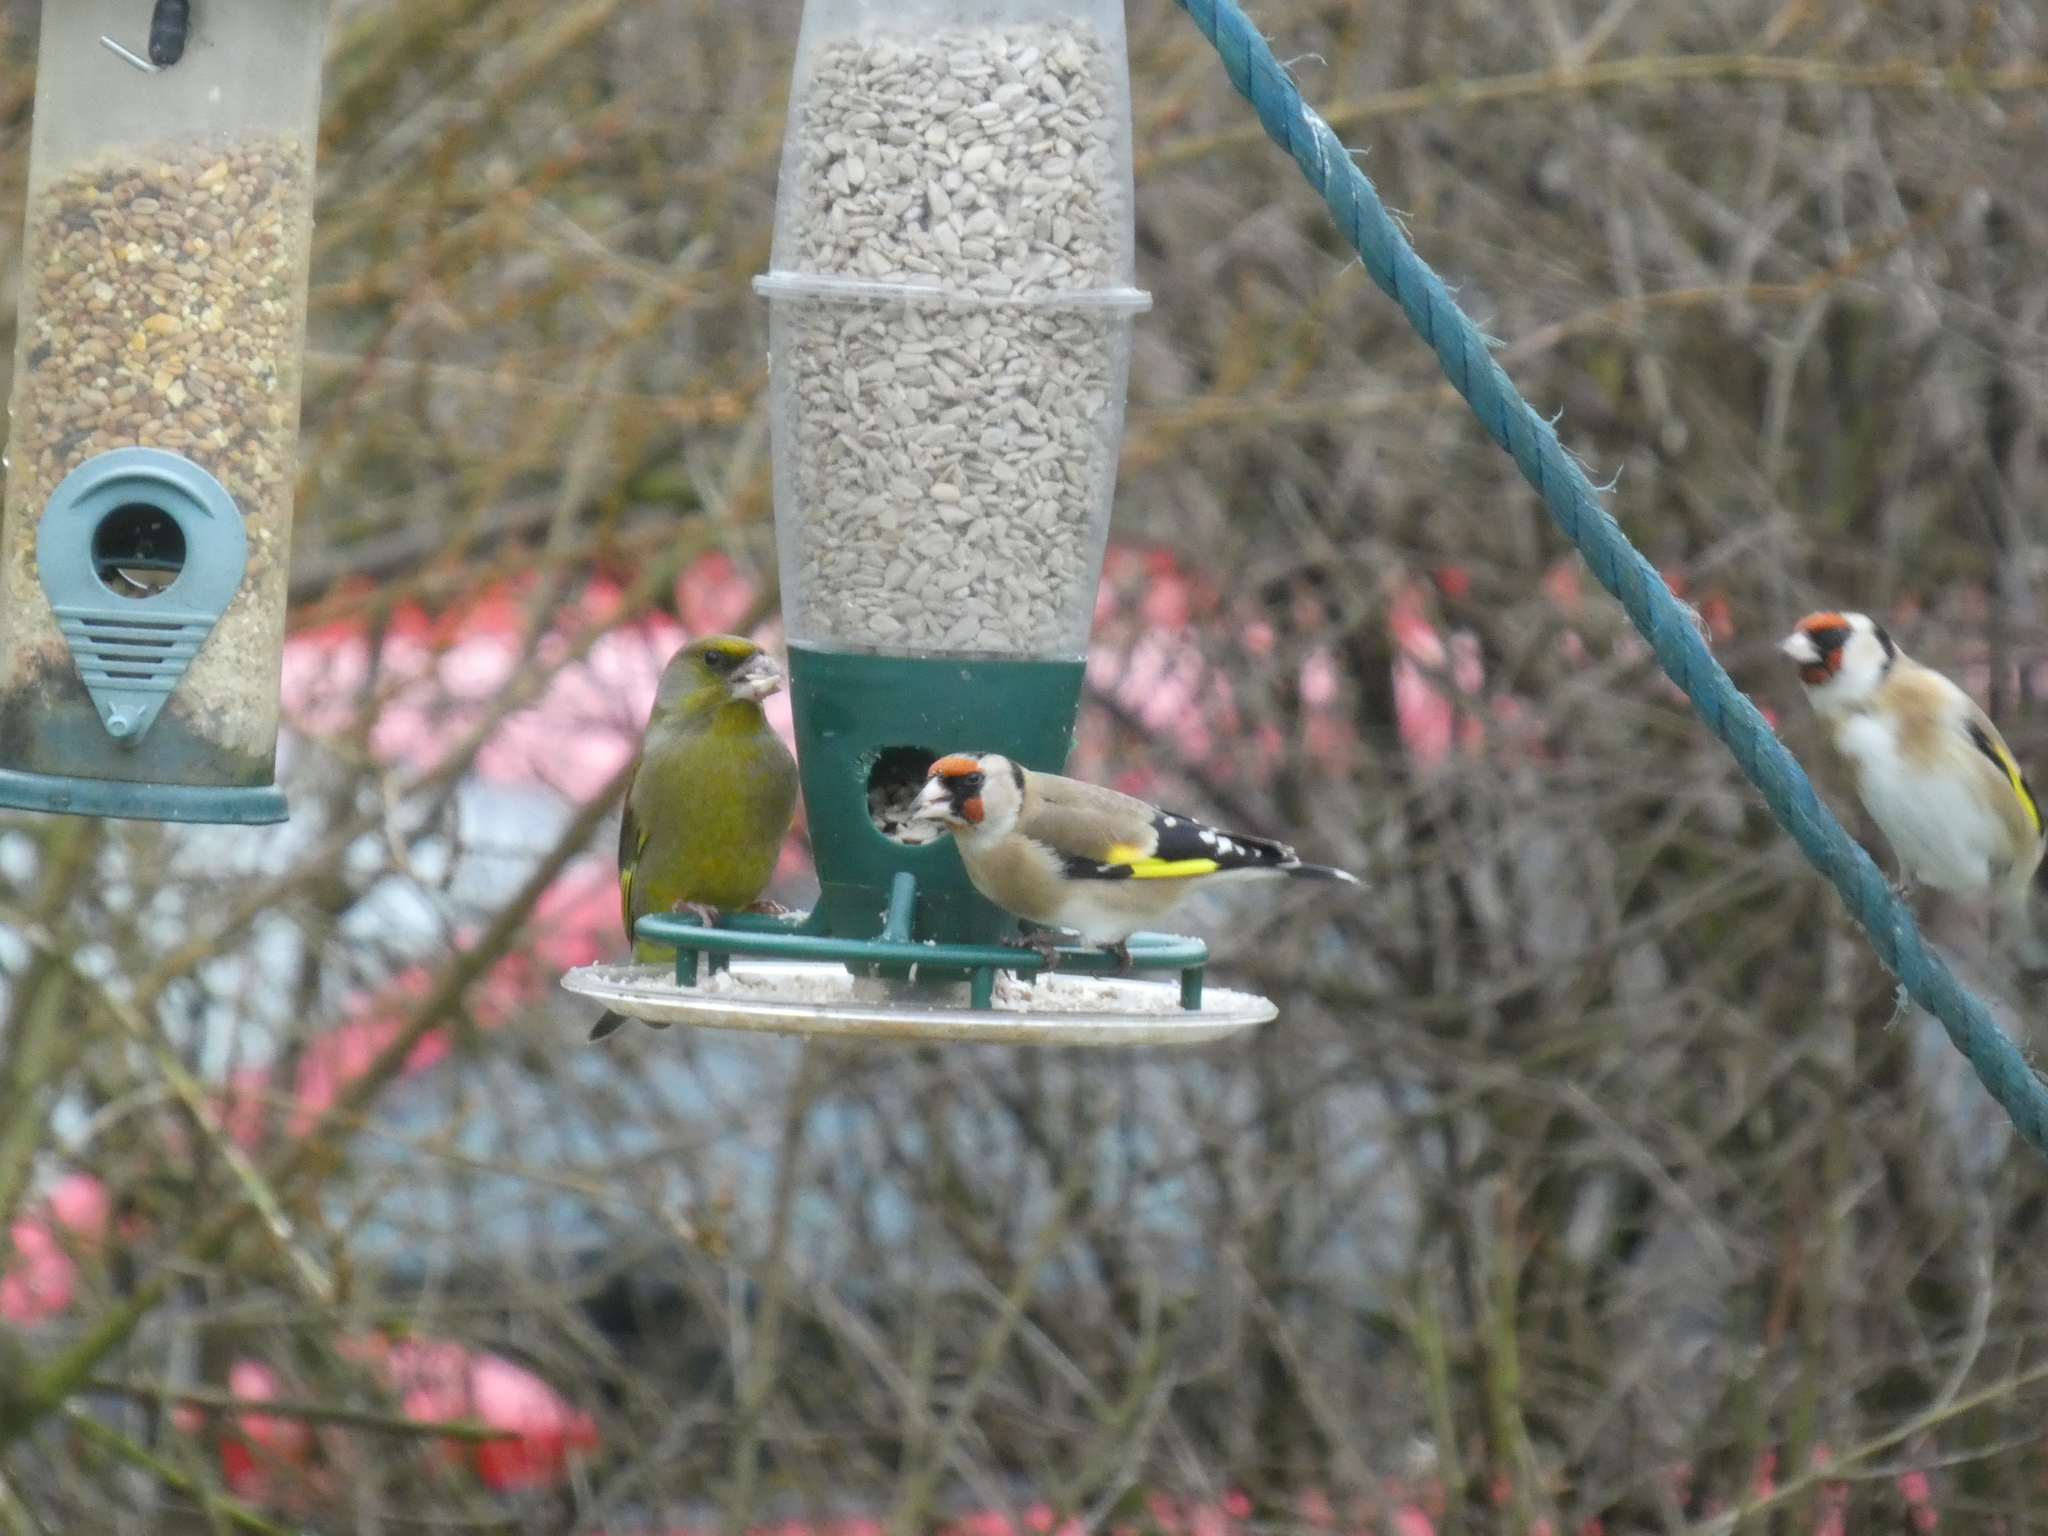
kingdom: Plantae
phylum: Tracheophyta
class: Liliopsida
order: Poales
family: Poaceae
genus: Chloris
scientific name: Chloris chloris
